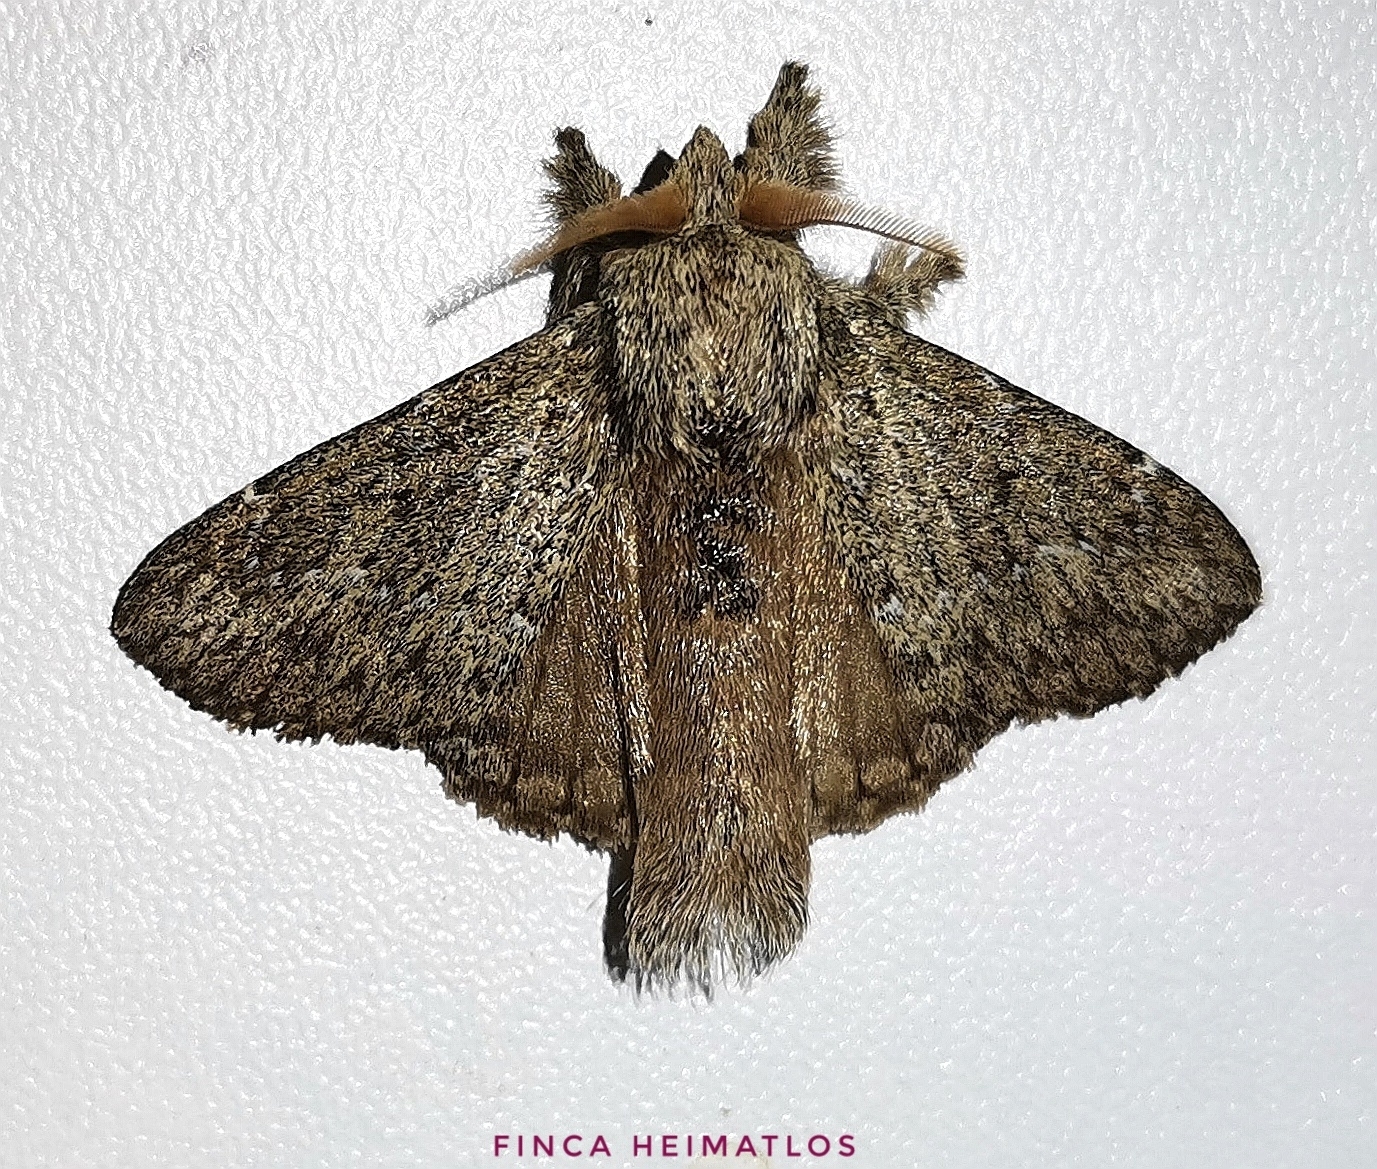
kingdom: Animalia
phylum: Arthropoda
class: Insecta
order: Lepidoptera
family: Lasiocampidae
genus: Euglyphis
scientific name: Euglyphis maria
